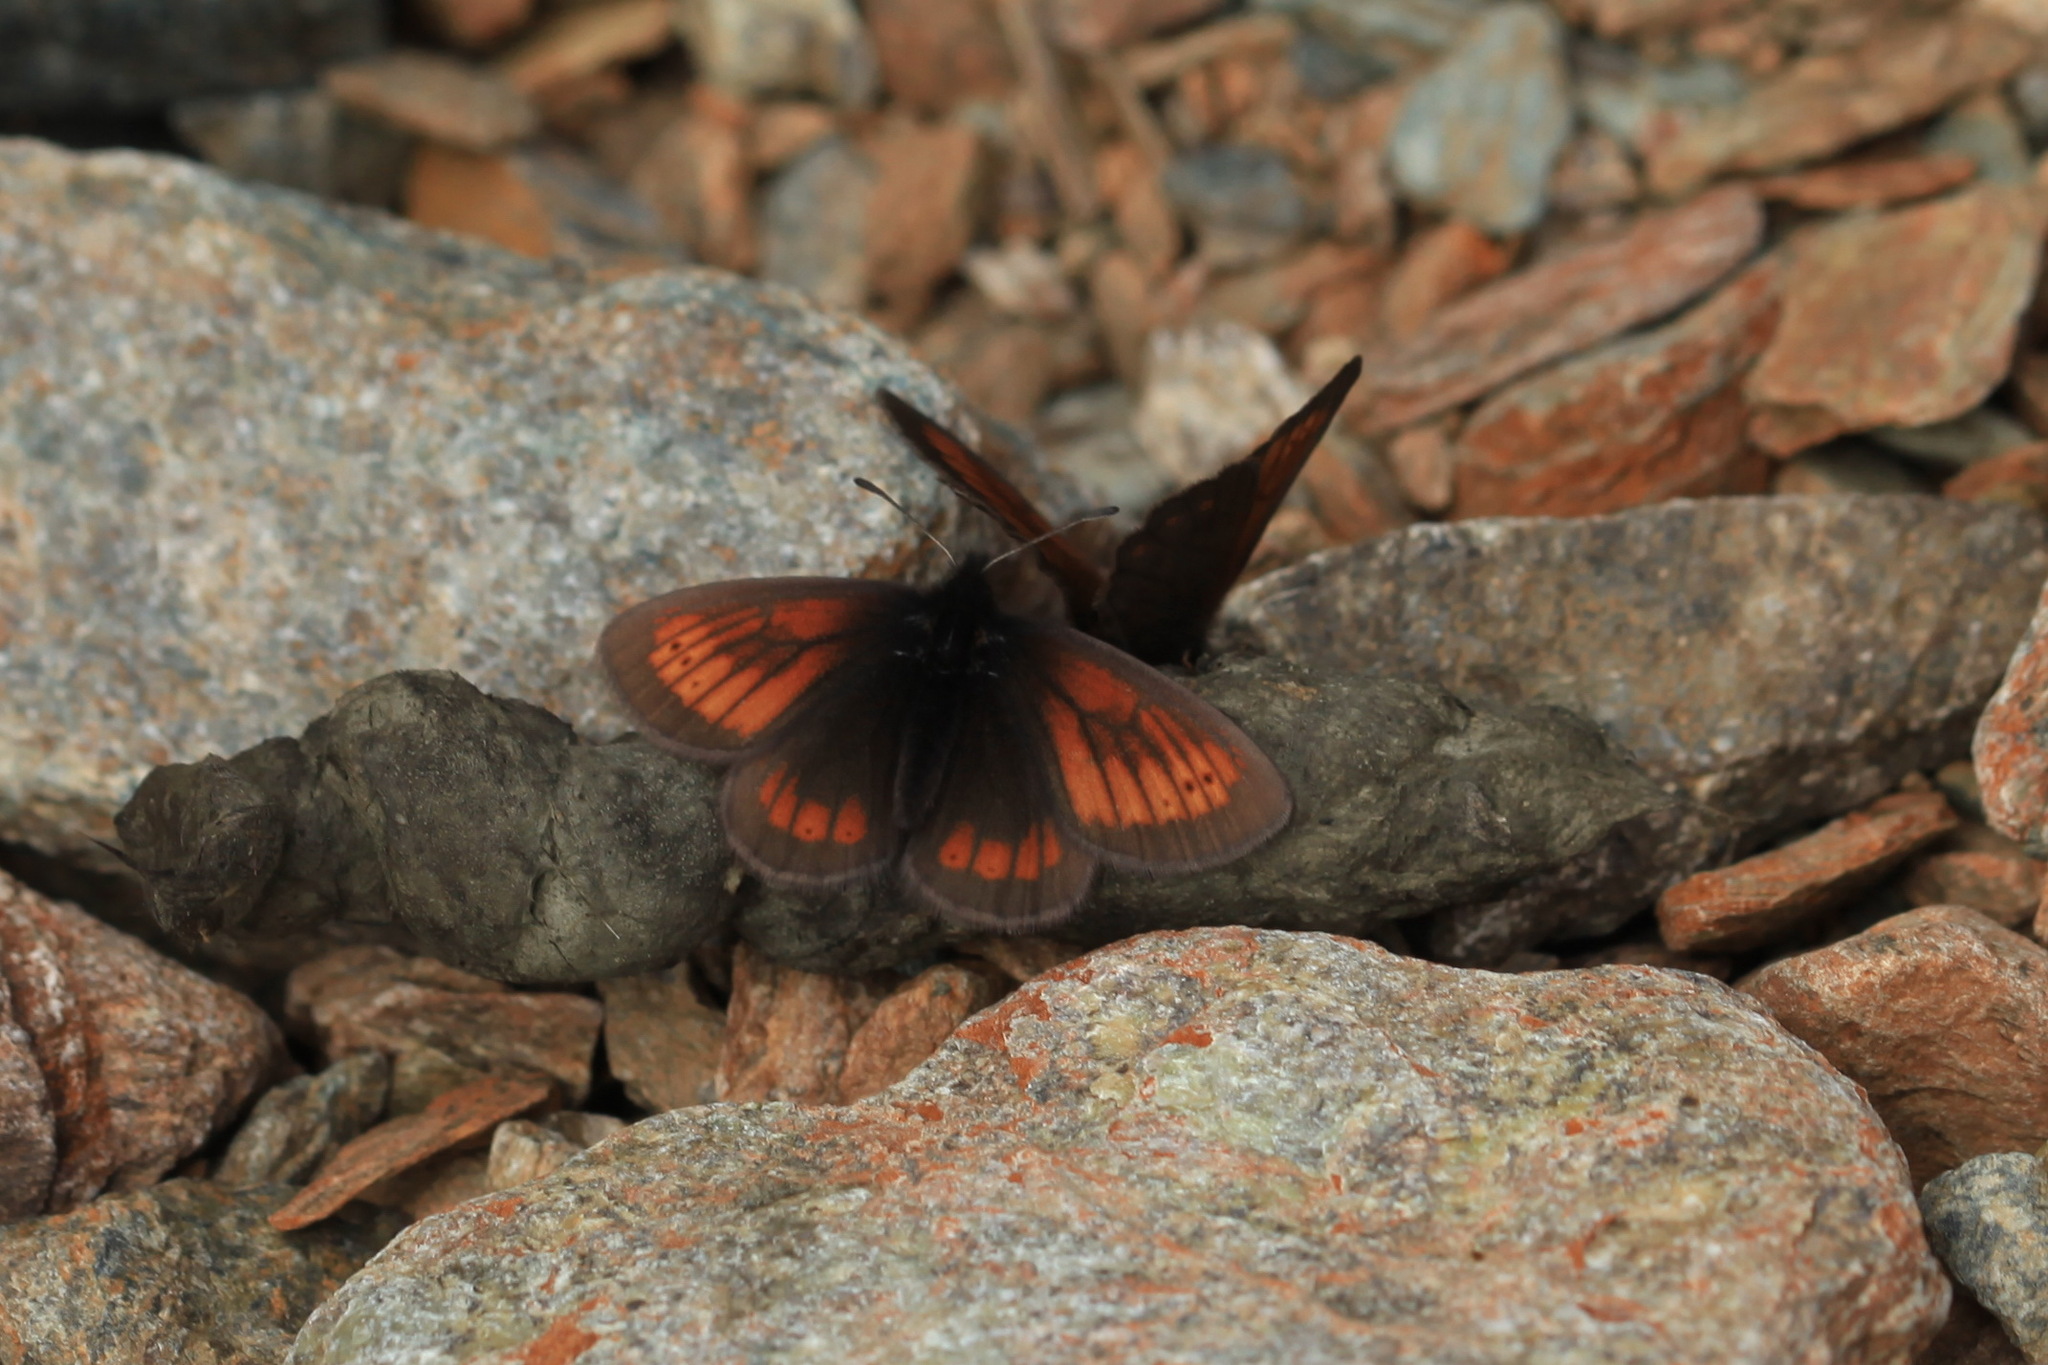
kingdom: Animalia
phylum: Arthropoda
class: Insecta
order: Lepidoptera
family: Nymphalidae
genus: Erebia
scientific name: Erebia kefersteinii
